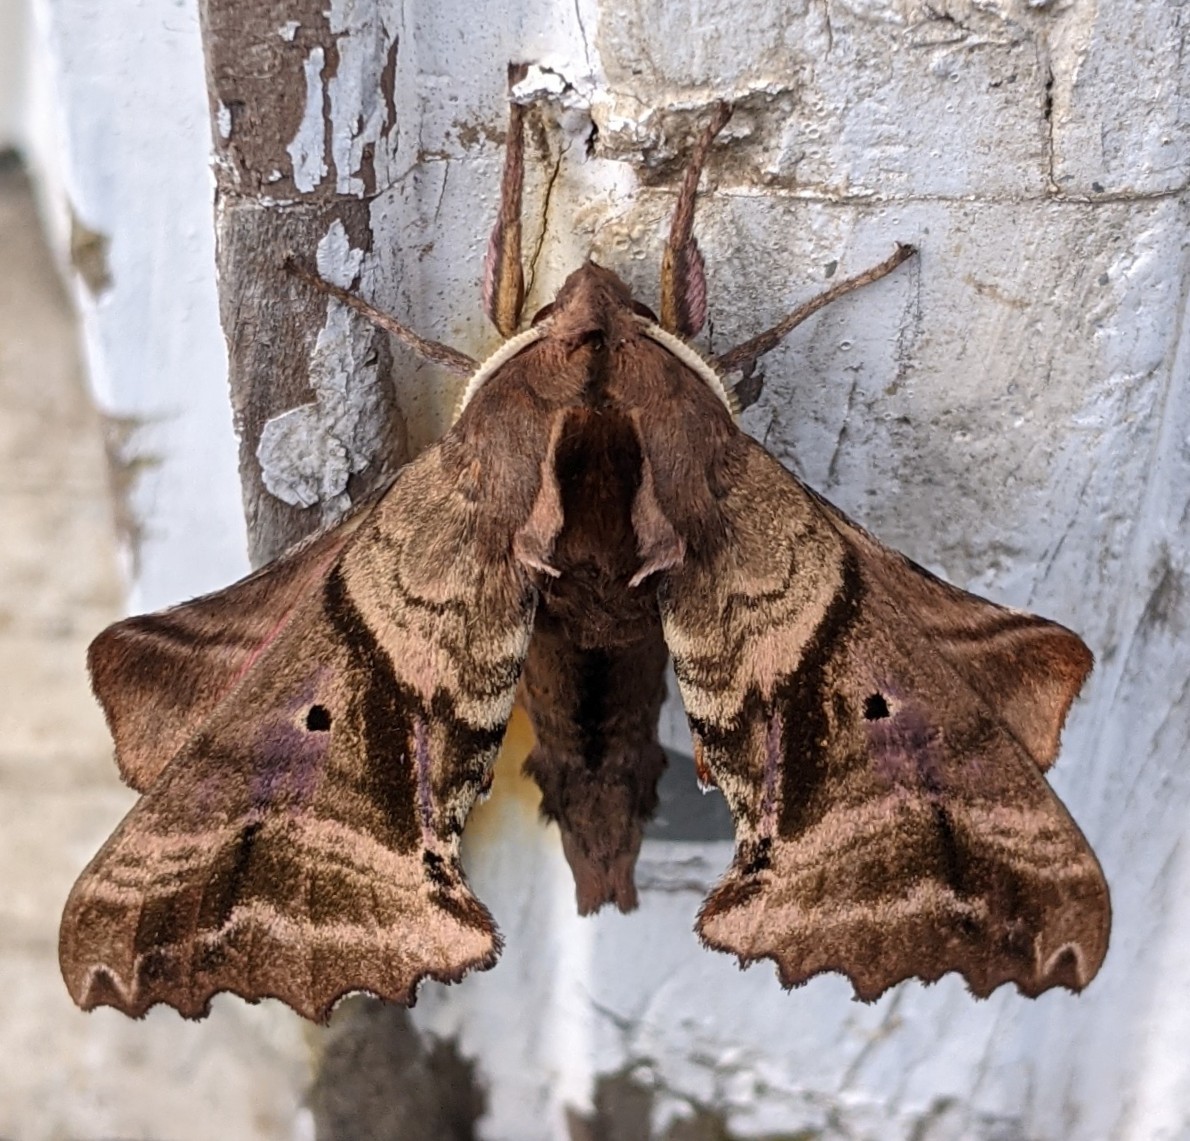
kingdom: Animalia
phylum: Arthropoda
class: Insecta
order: Lepidoptera
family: Sphingidae
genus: Paonias
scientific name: Paonias excaecata
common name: Blind-eyed sphinx
